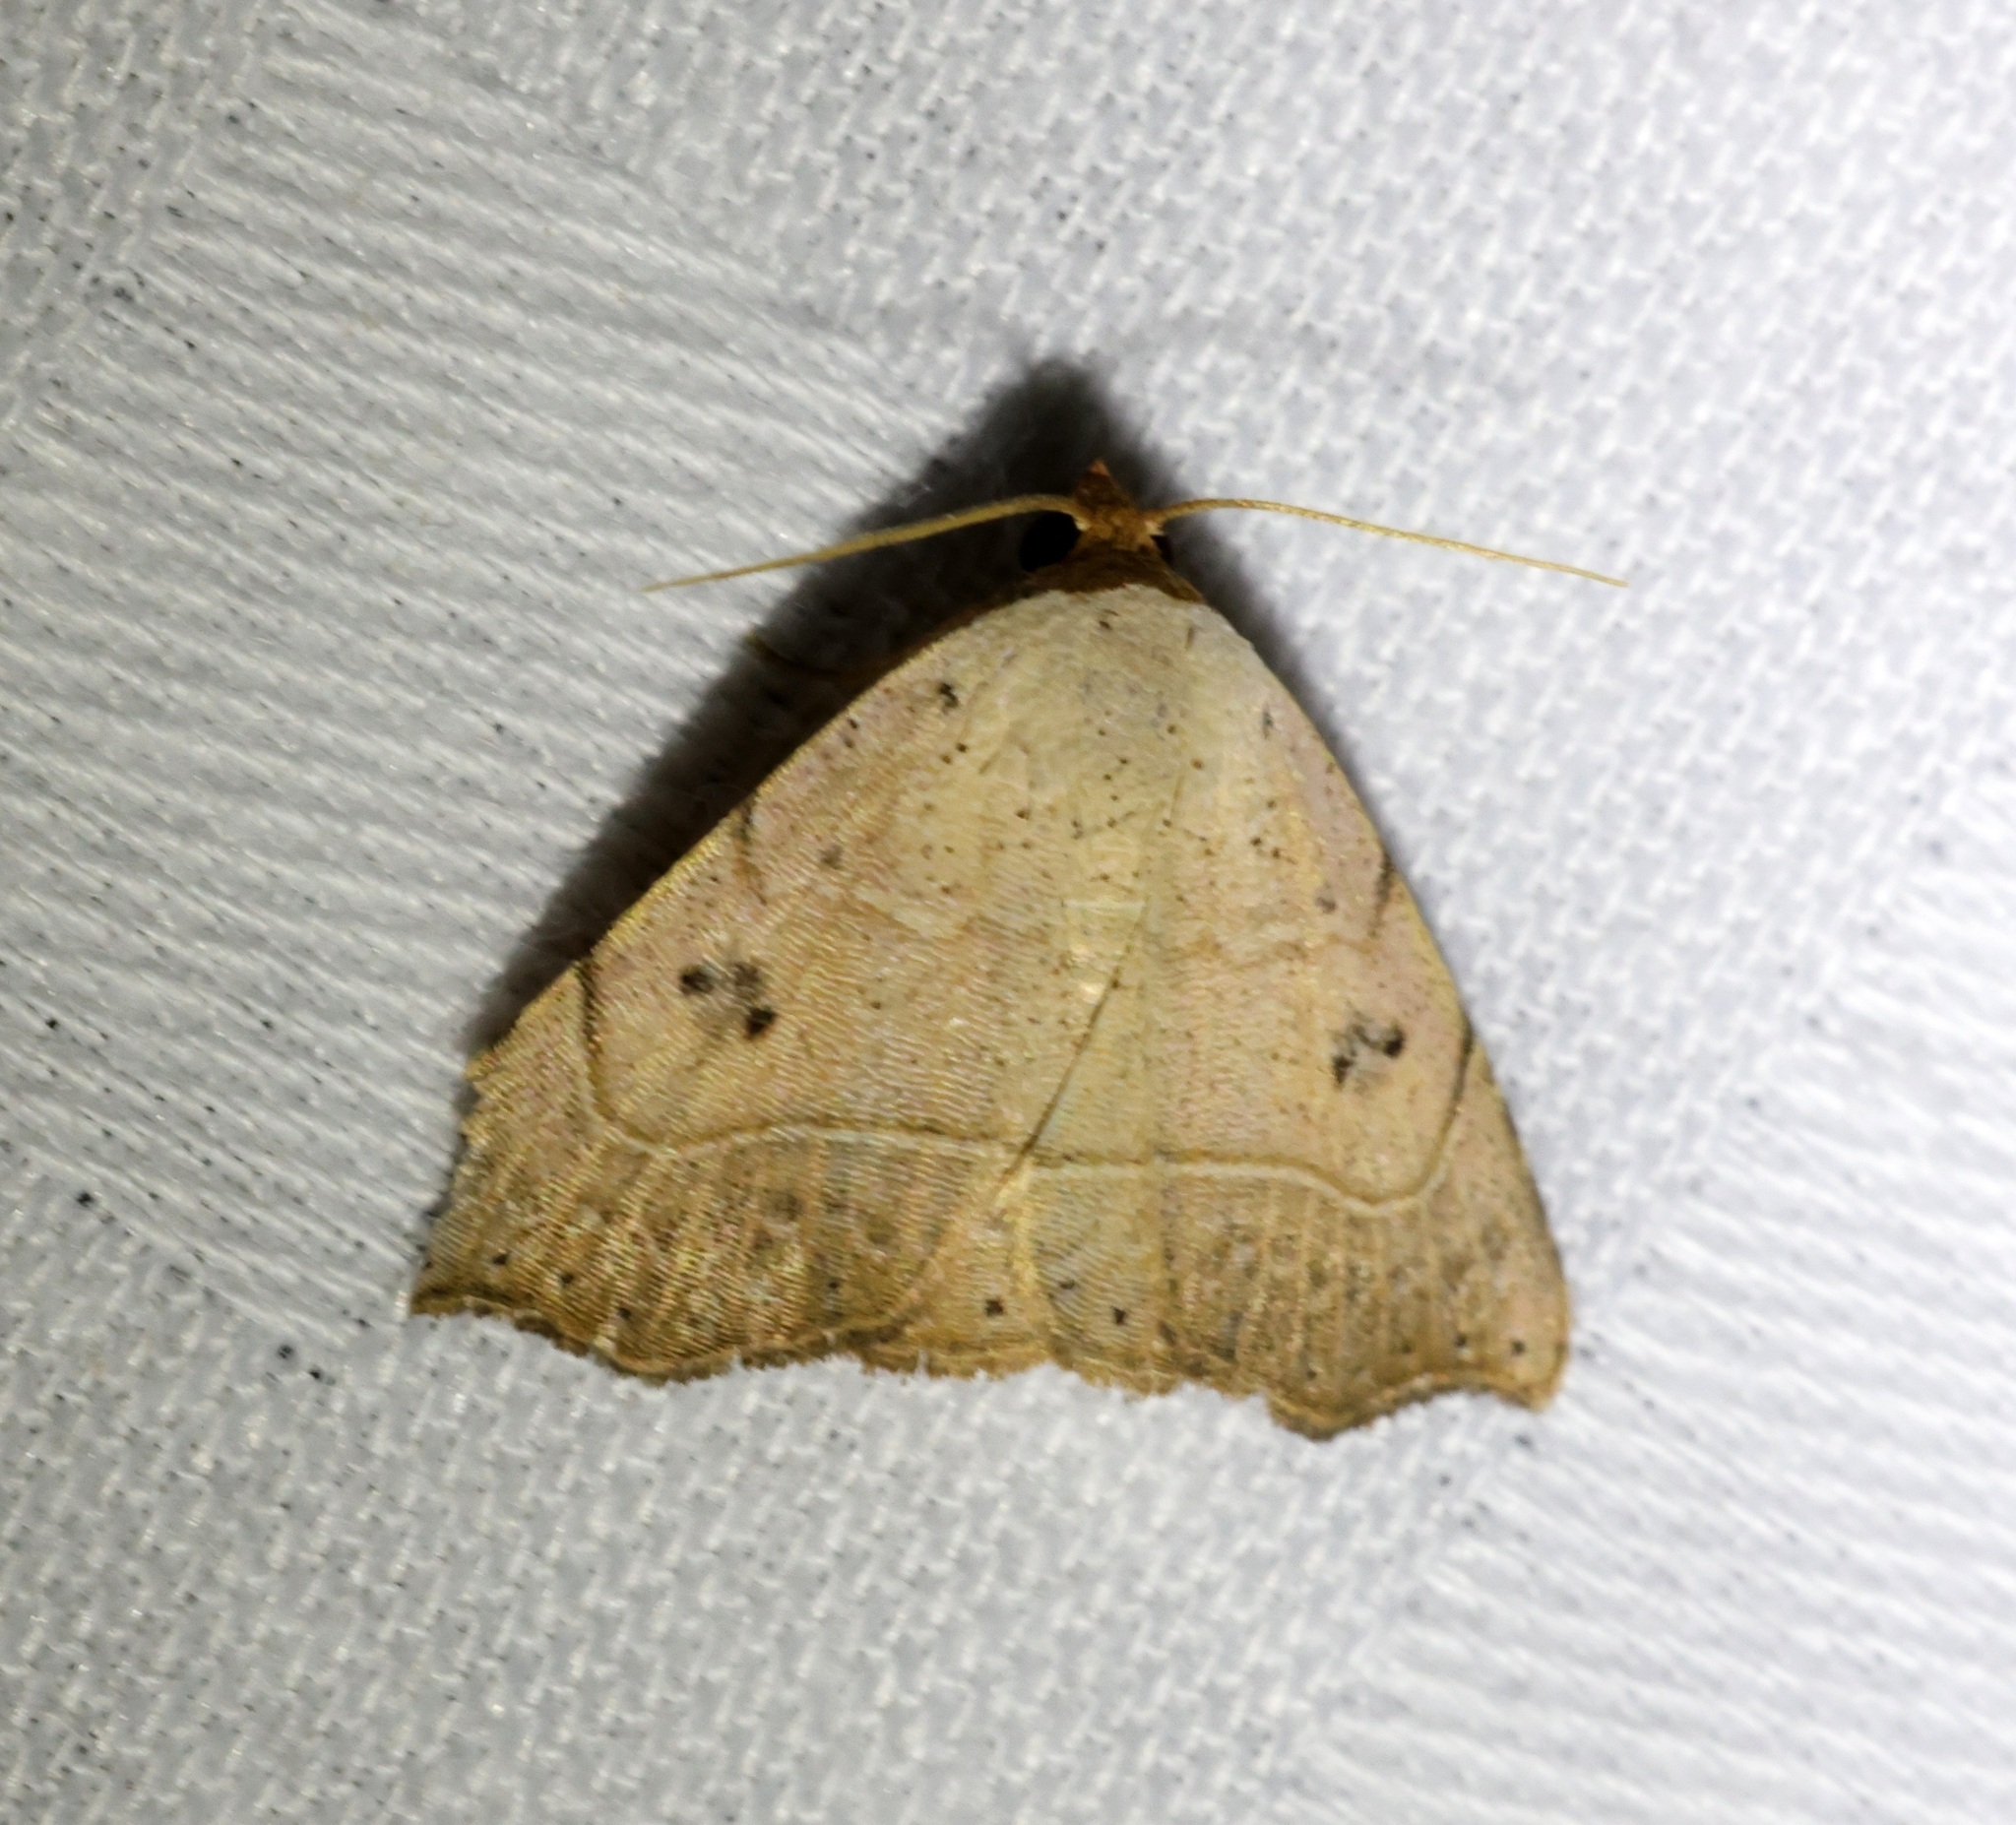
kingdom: Animalia
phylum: Arthropoda
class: Insecta
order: Lepidoptera
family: Erebidae
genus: Laspeyria
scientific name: Laspeyria ruficeps
